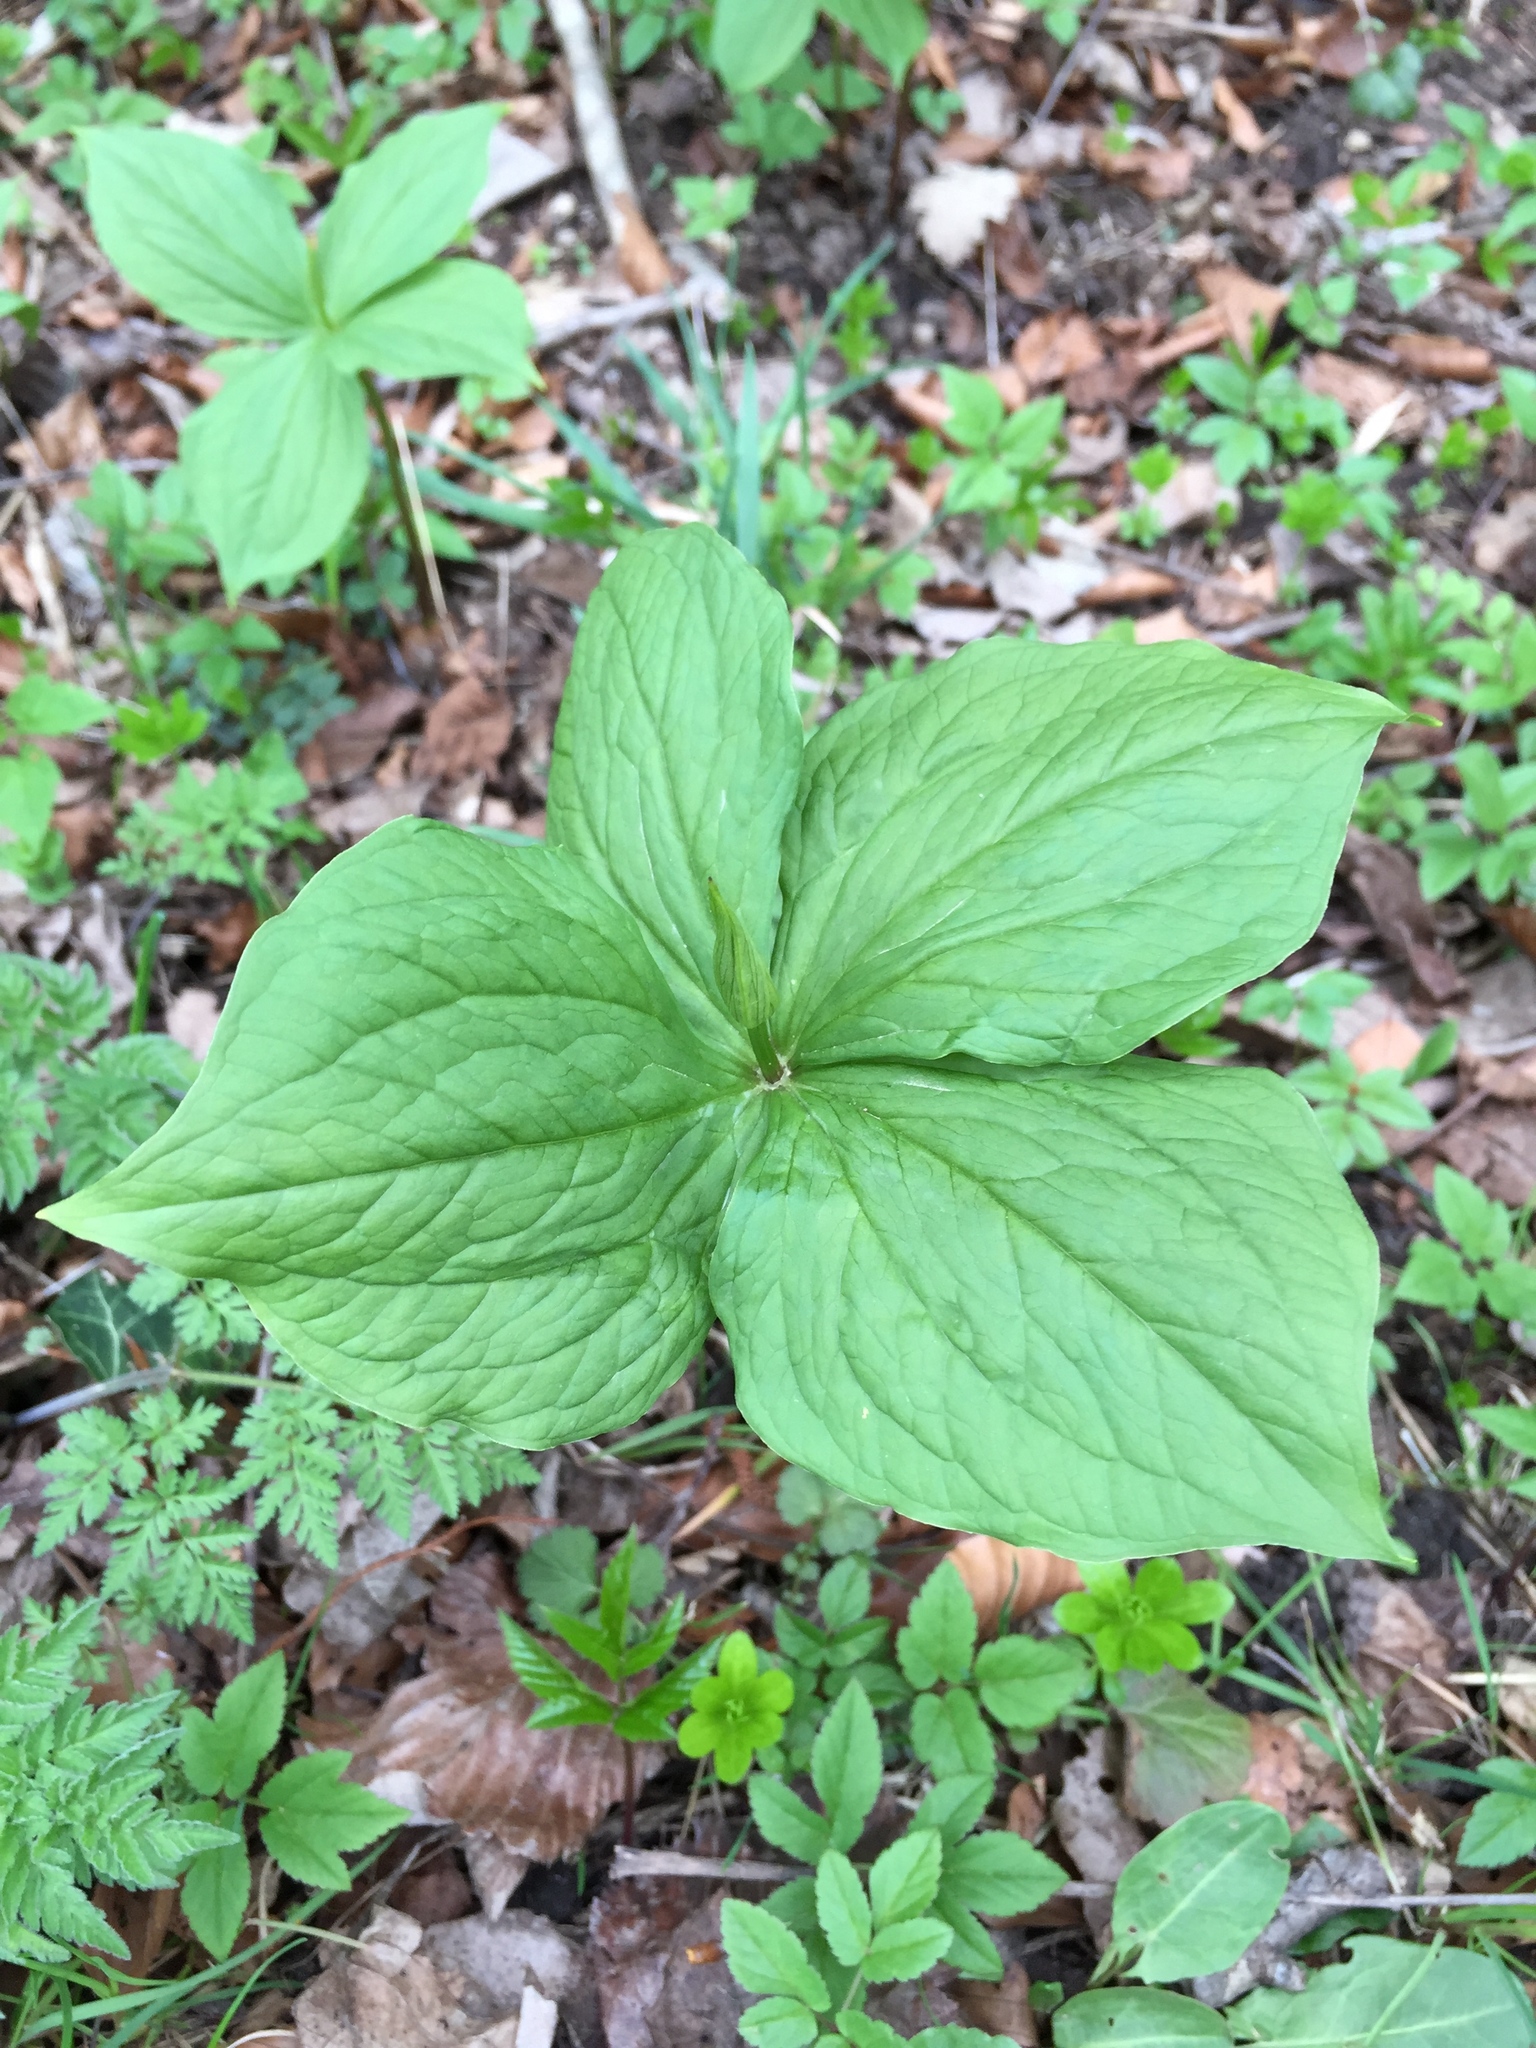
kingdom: Plantae
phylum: Tracheophyta
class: Liliopsida
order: Liliales
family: Melanthiaceae
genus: Paris
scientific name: Paris quadrifolia
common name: Herb-paris
